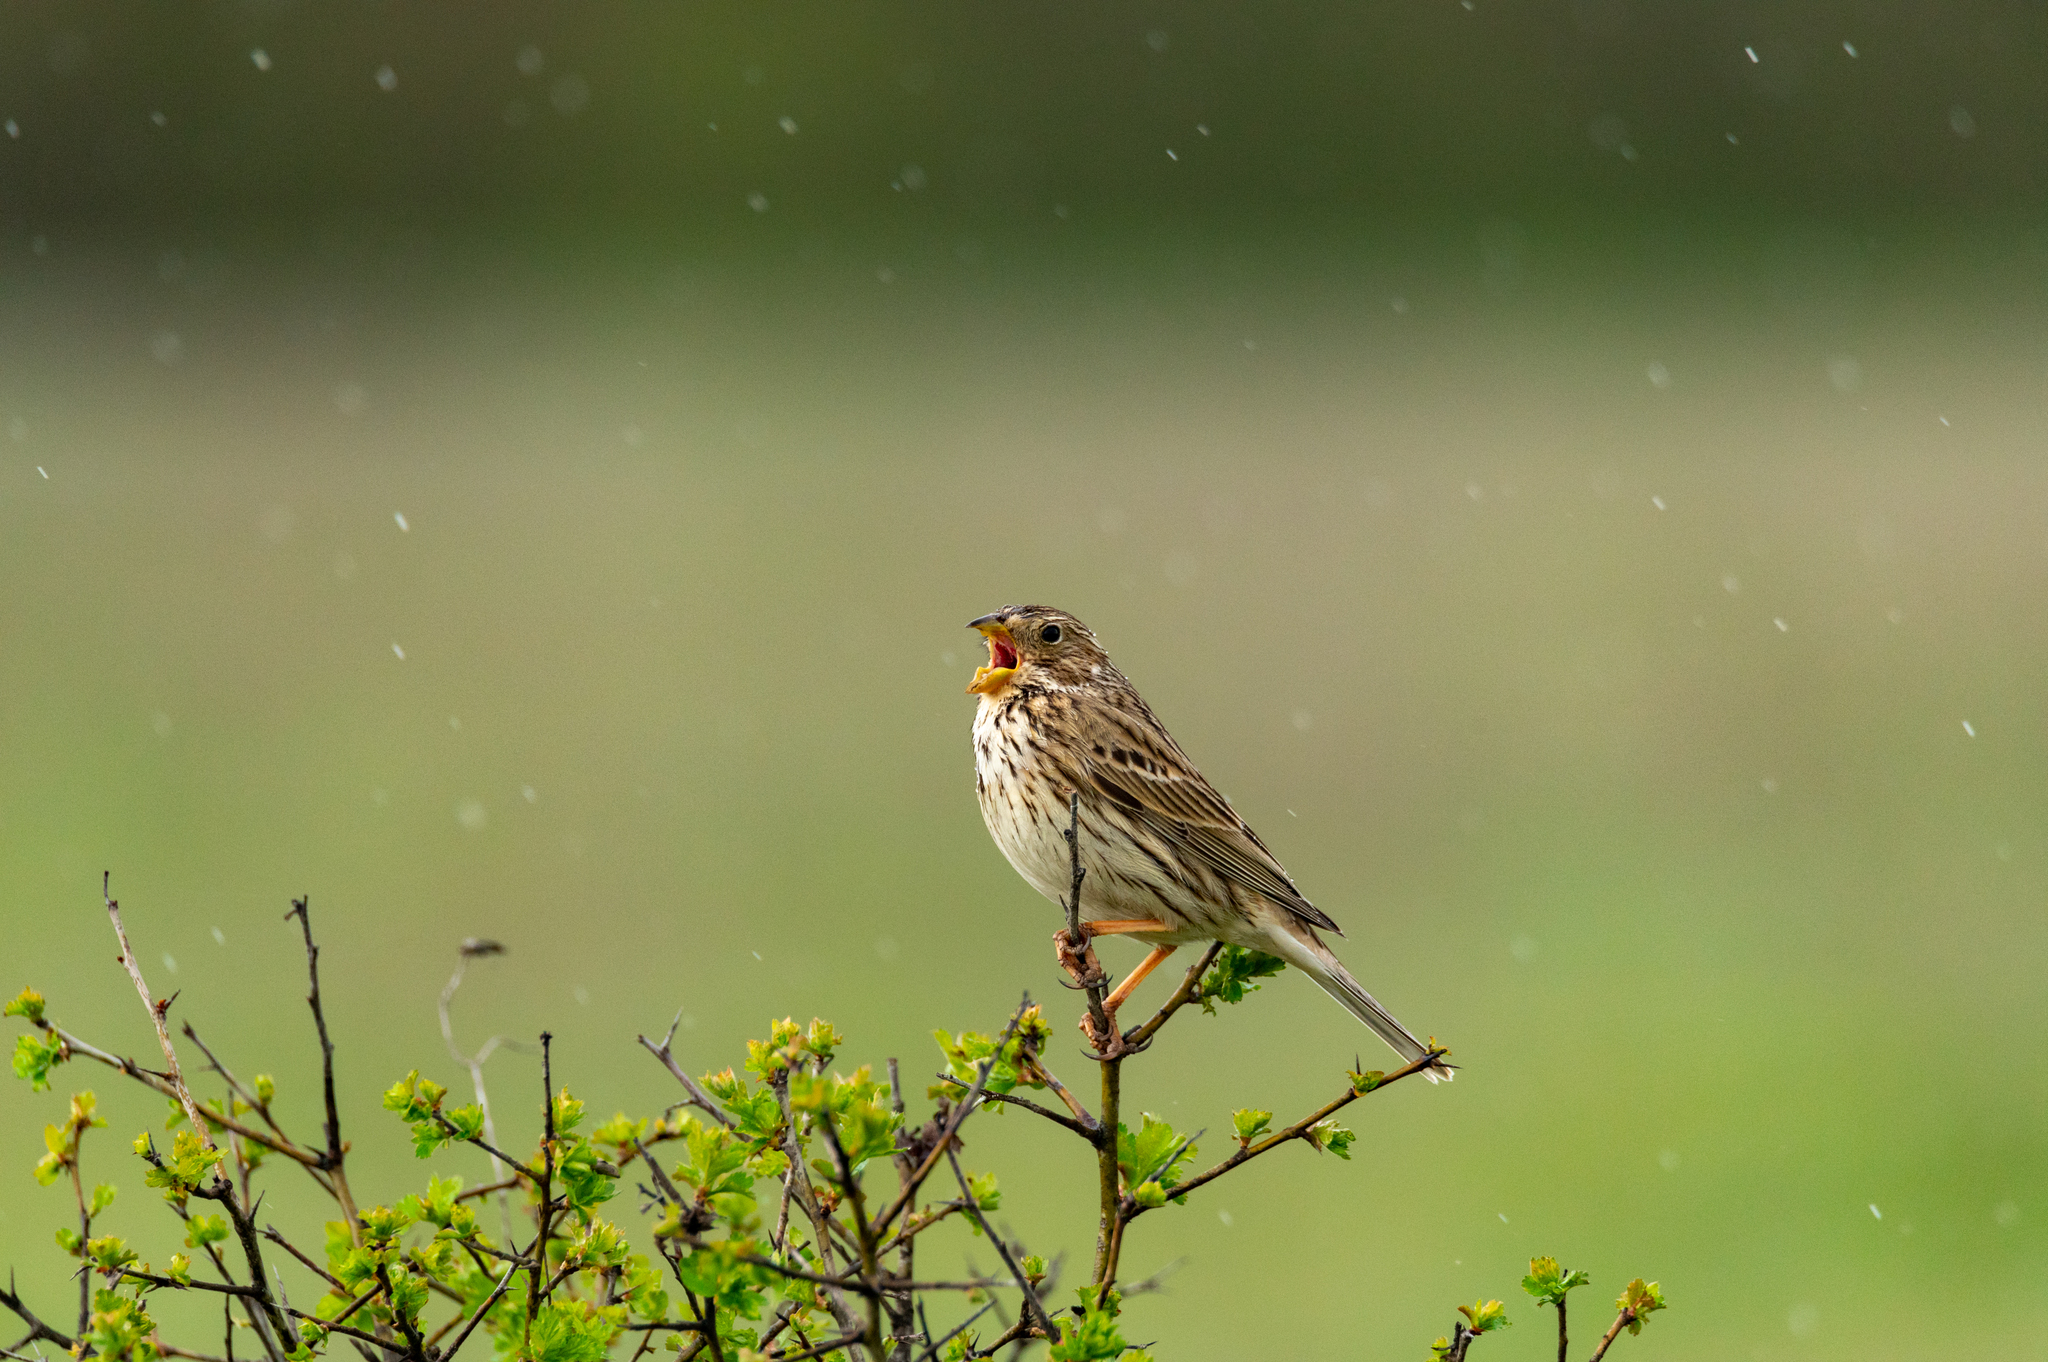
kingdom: Animalia
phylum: Chordata
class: Aves
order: Passeriformes
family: Emberizidae
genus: Emberiza
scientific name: Emberiza calandra
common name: Corn bunting
